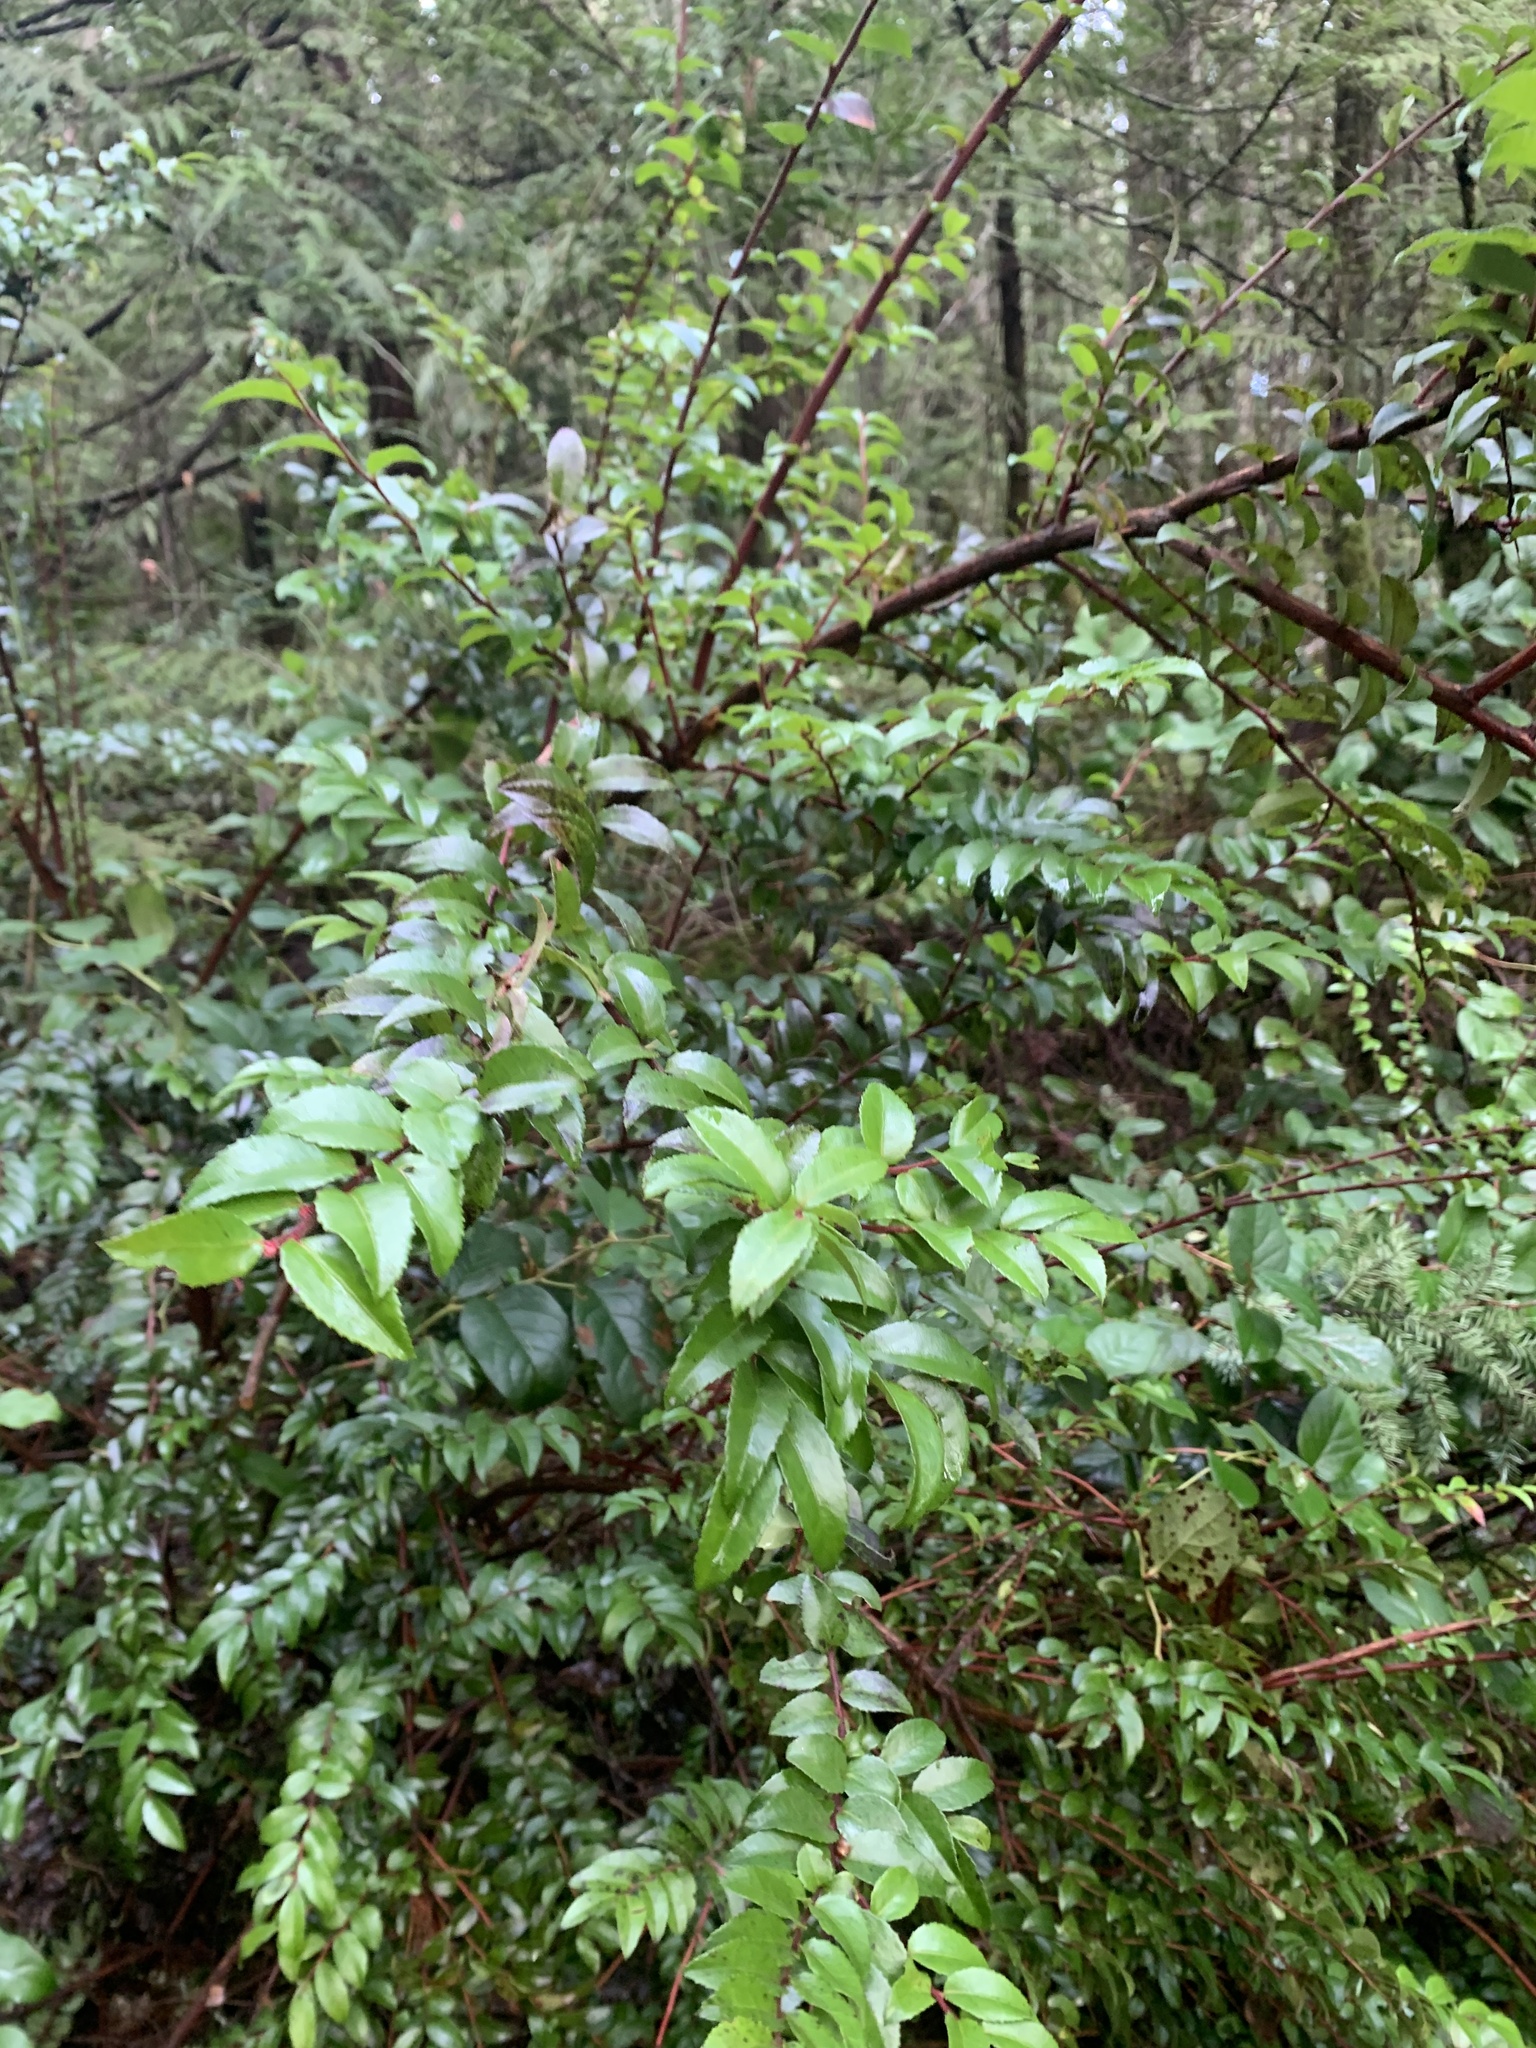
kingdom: Plantae
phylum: Tracheophyta
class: Magnoliopsida
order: Ericales
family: Ericaceae
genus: Vaccinium
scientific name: Vaccinium ovatum
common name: California-huckleberry
